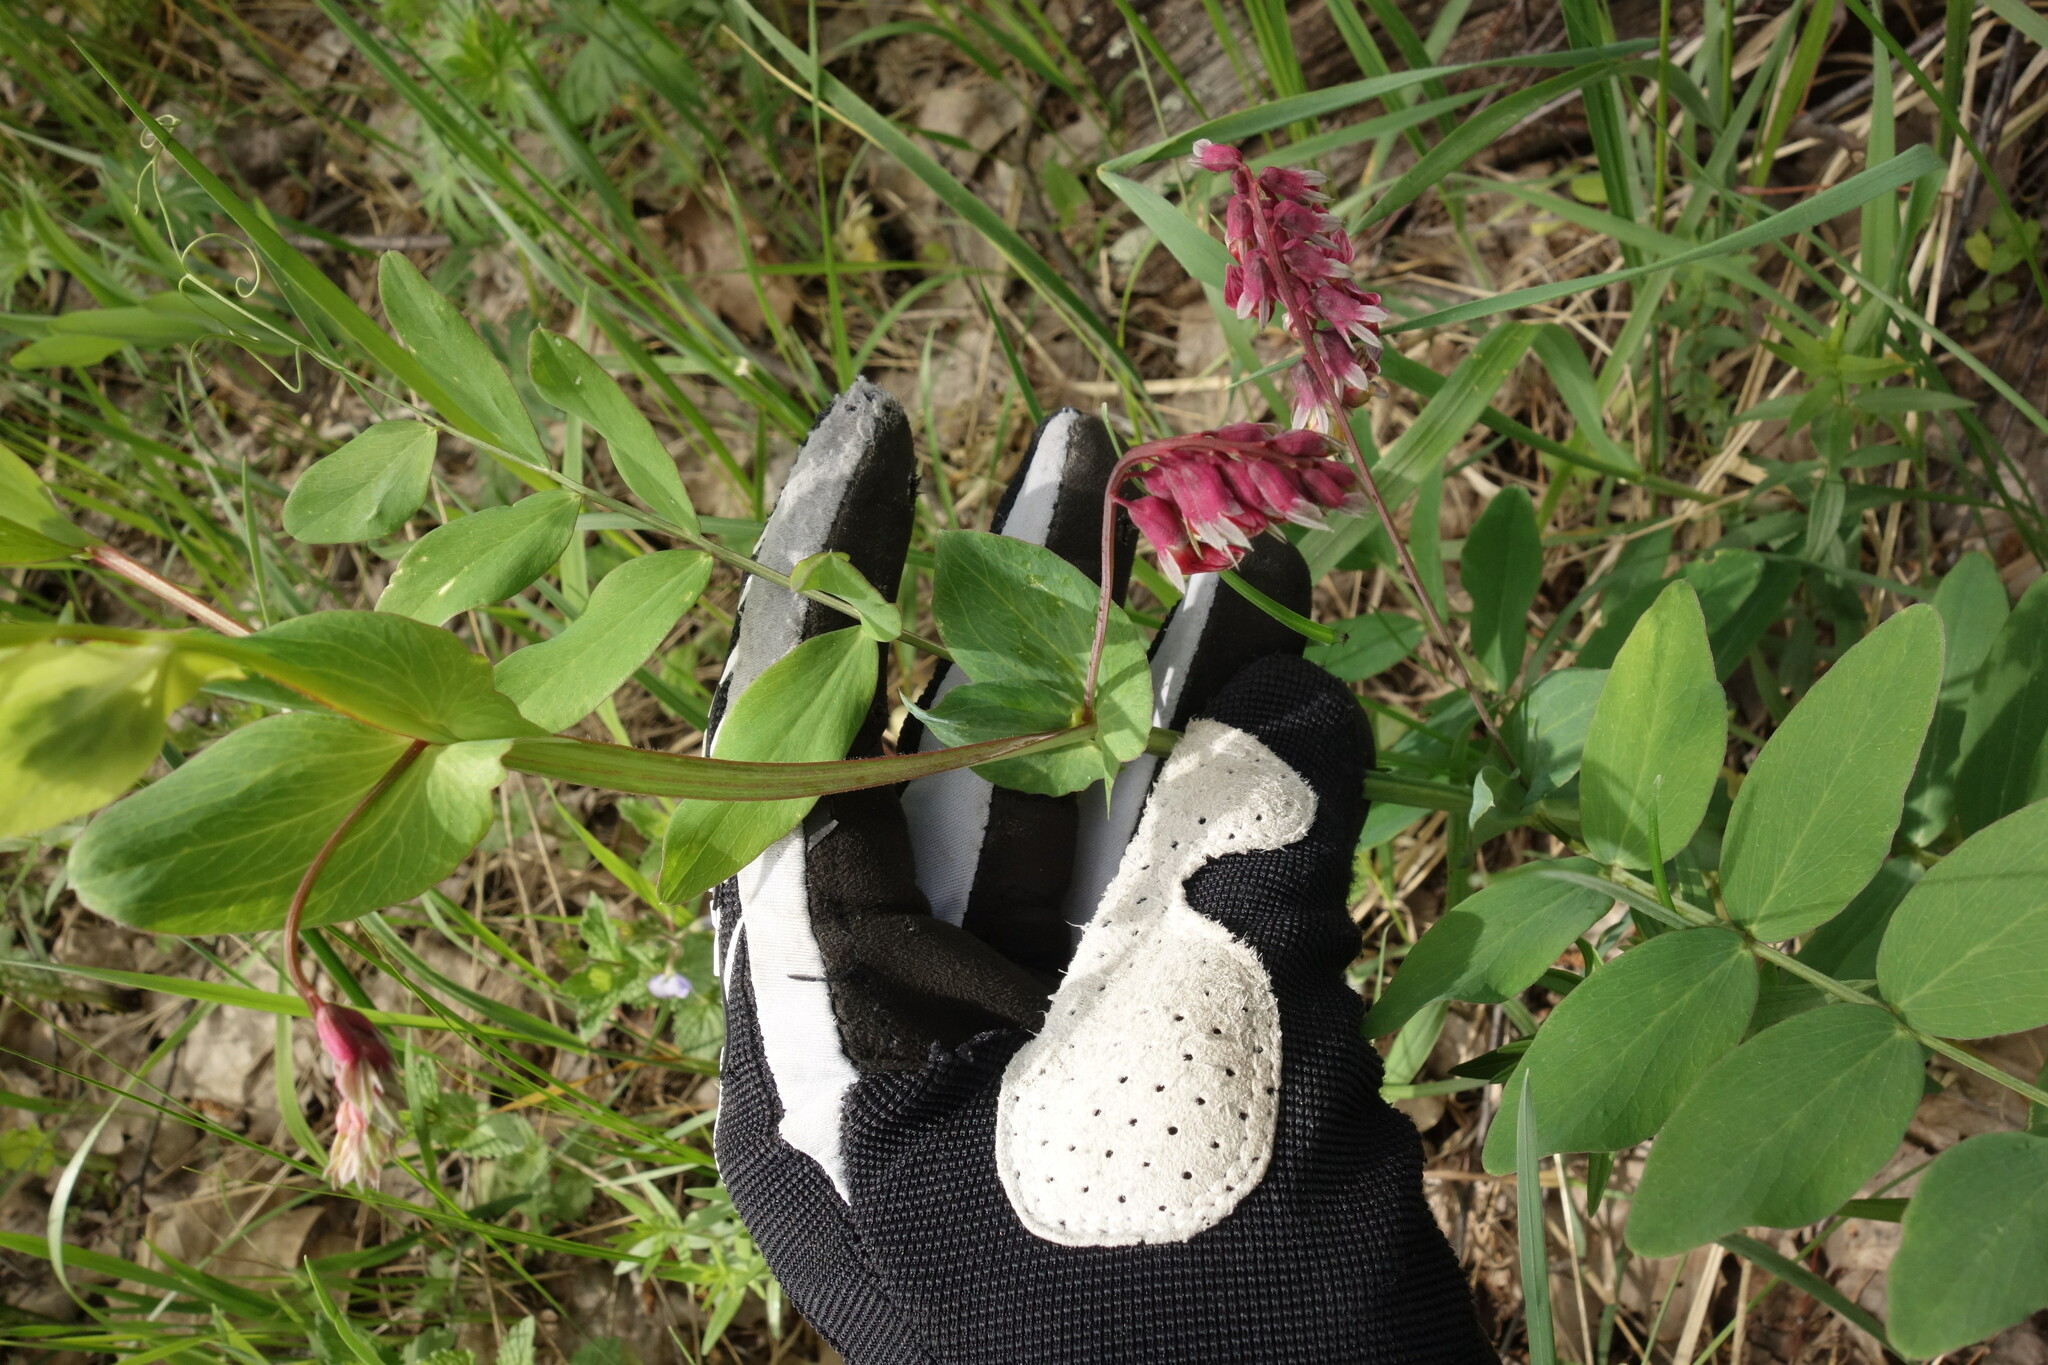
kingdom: Plantae
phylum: Tracheophyta
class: Magnoliopsida
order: Fabales
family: Fabaceae
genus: Lathyrus
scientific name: Lathyrus pisiformis
